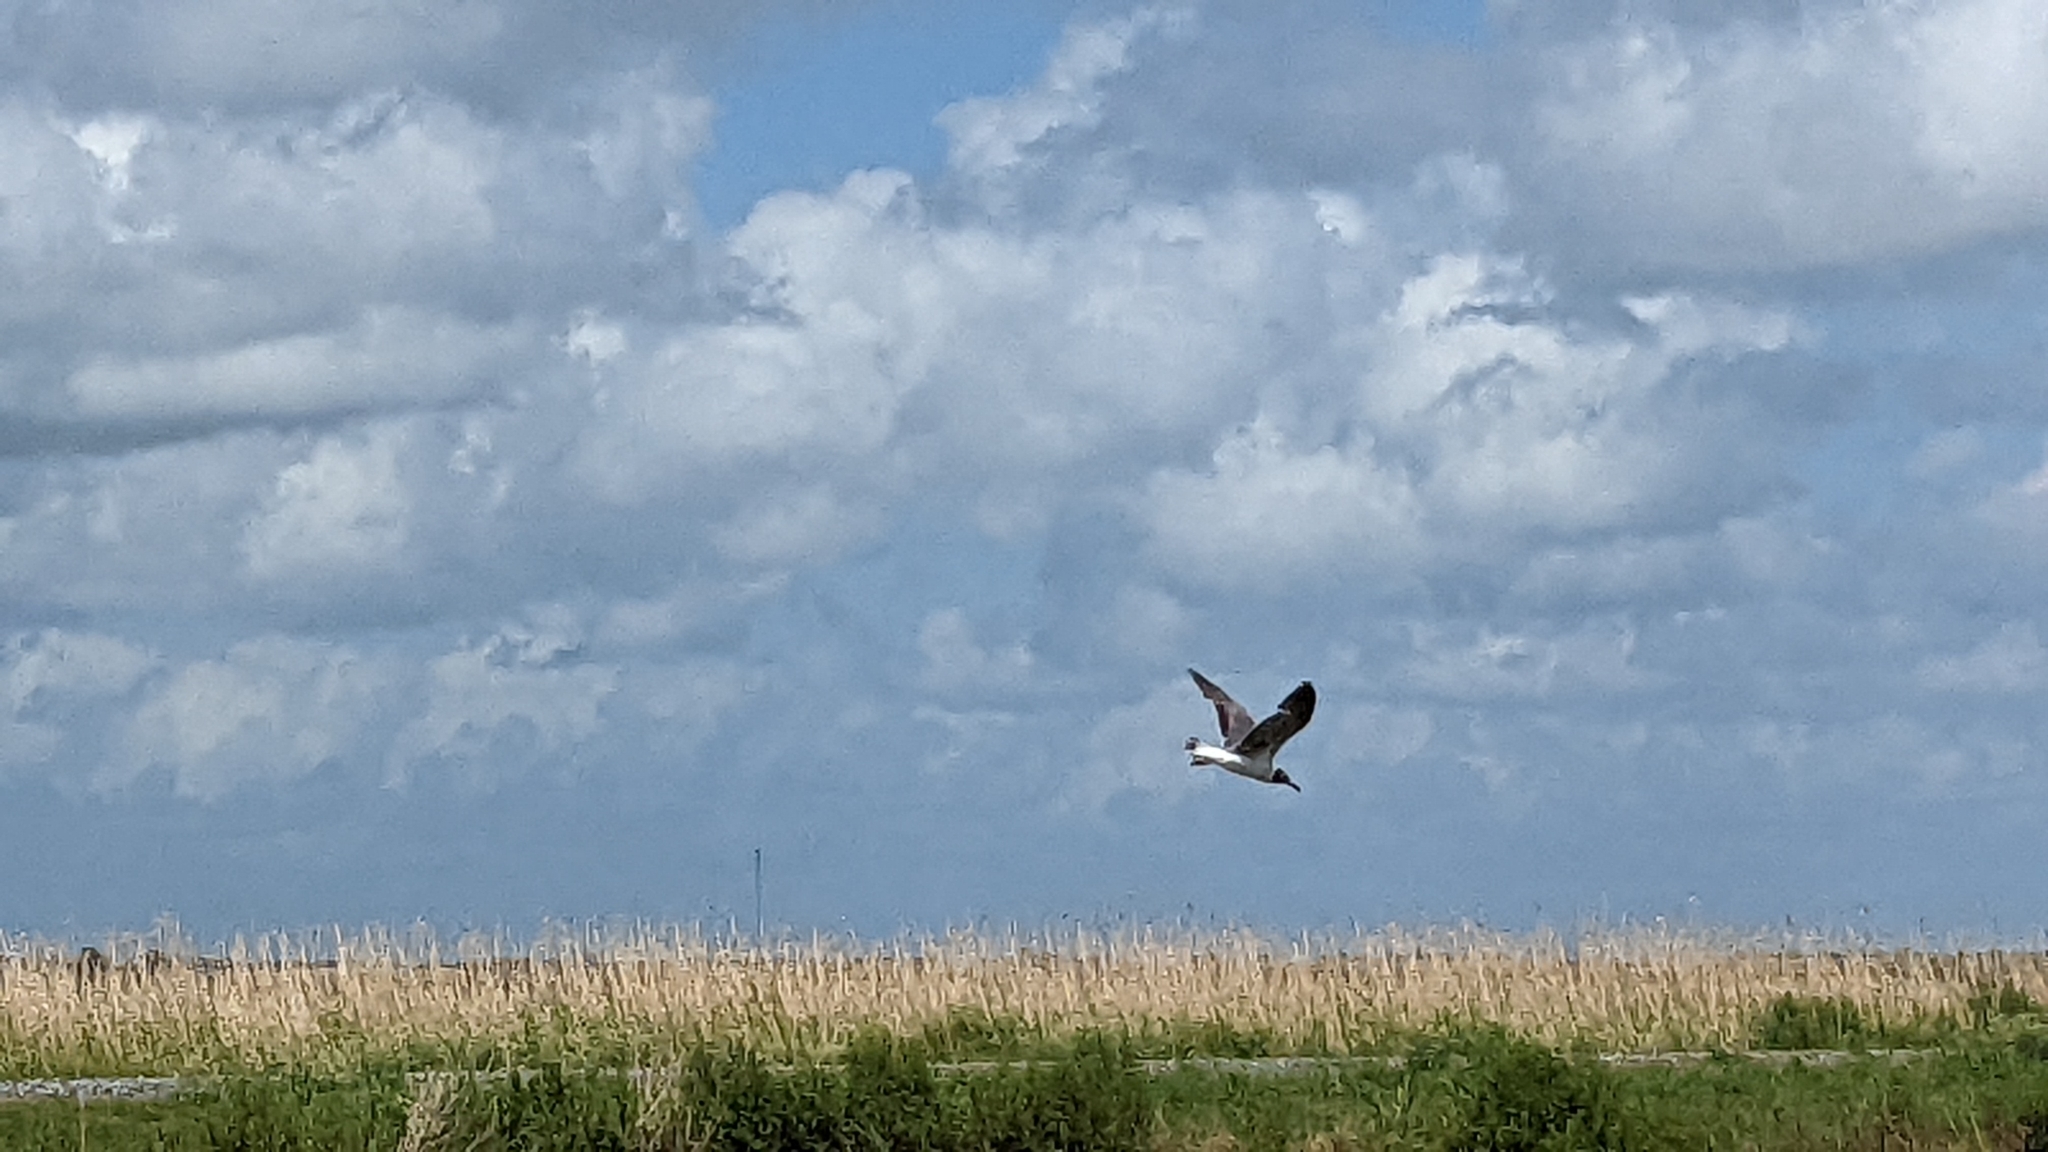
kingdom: Animalia
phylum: Chordata
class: Aves
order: Charadriiformes
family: Laridae
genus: Leucophaeus
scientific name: Leucophaeus atricilla
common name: Laughing gull
